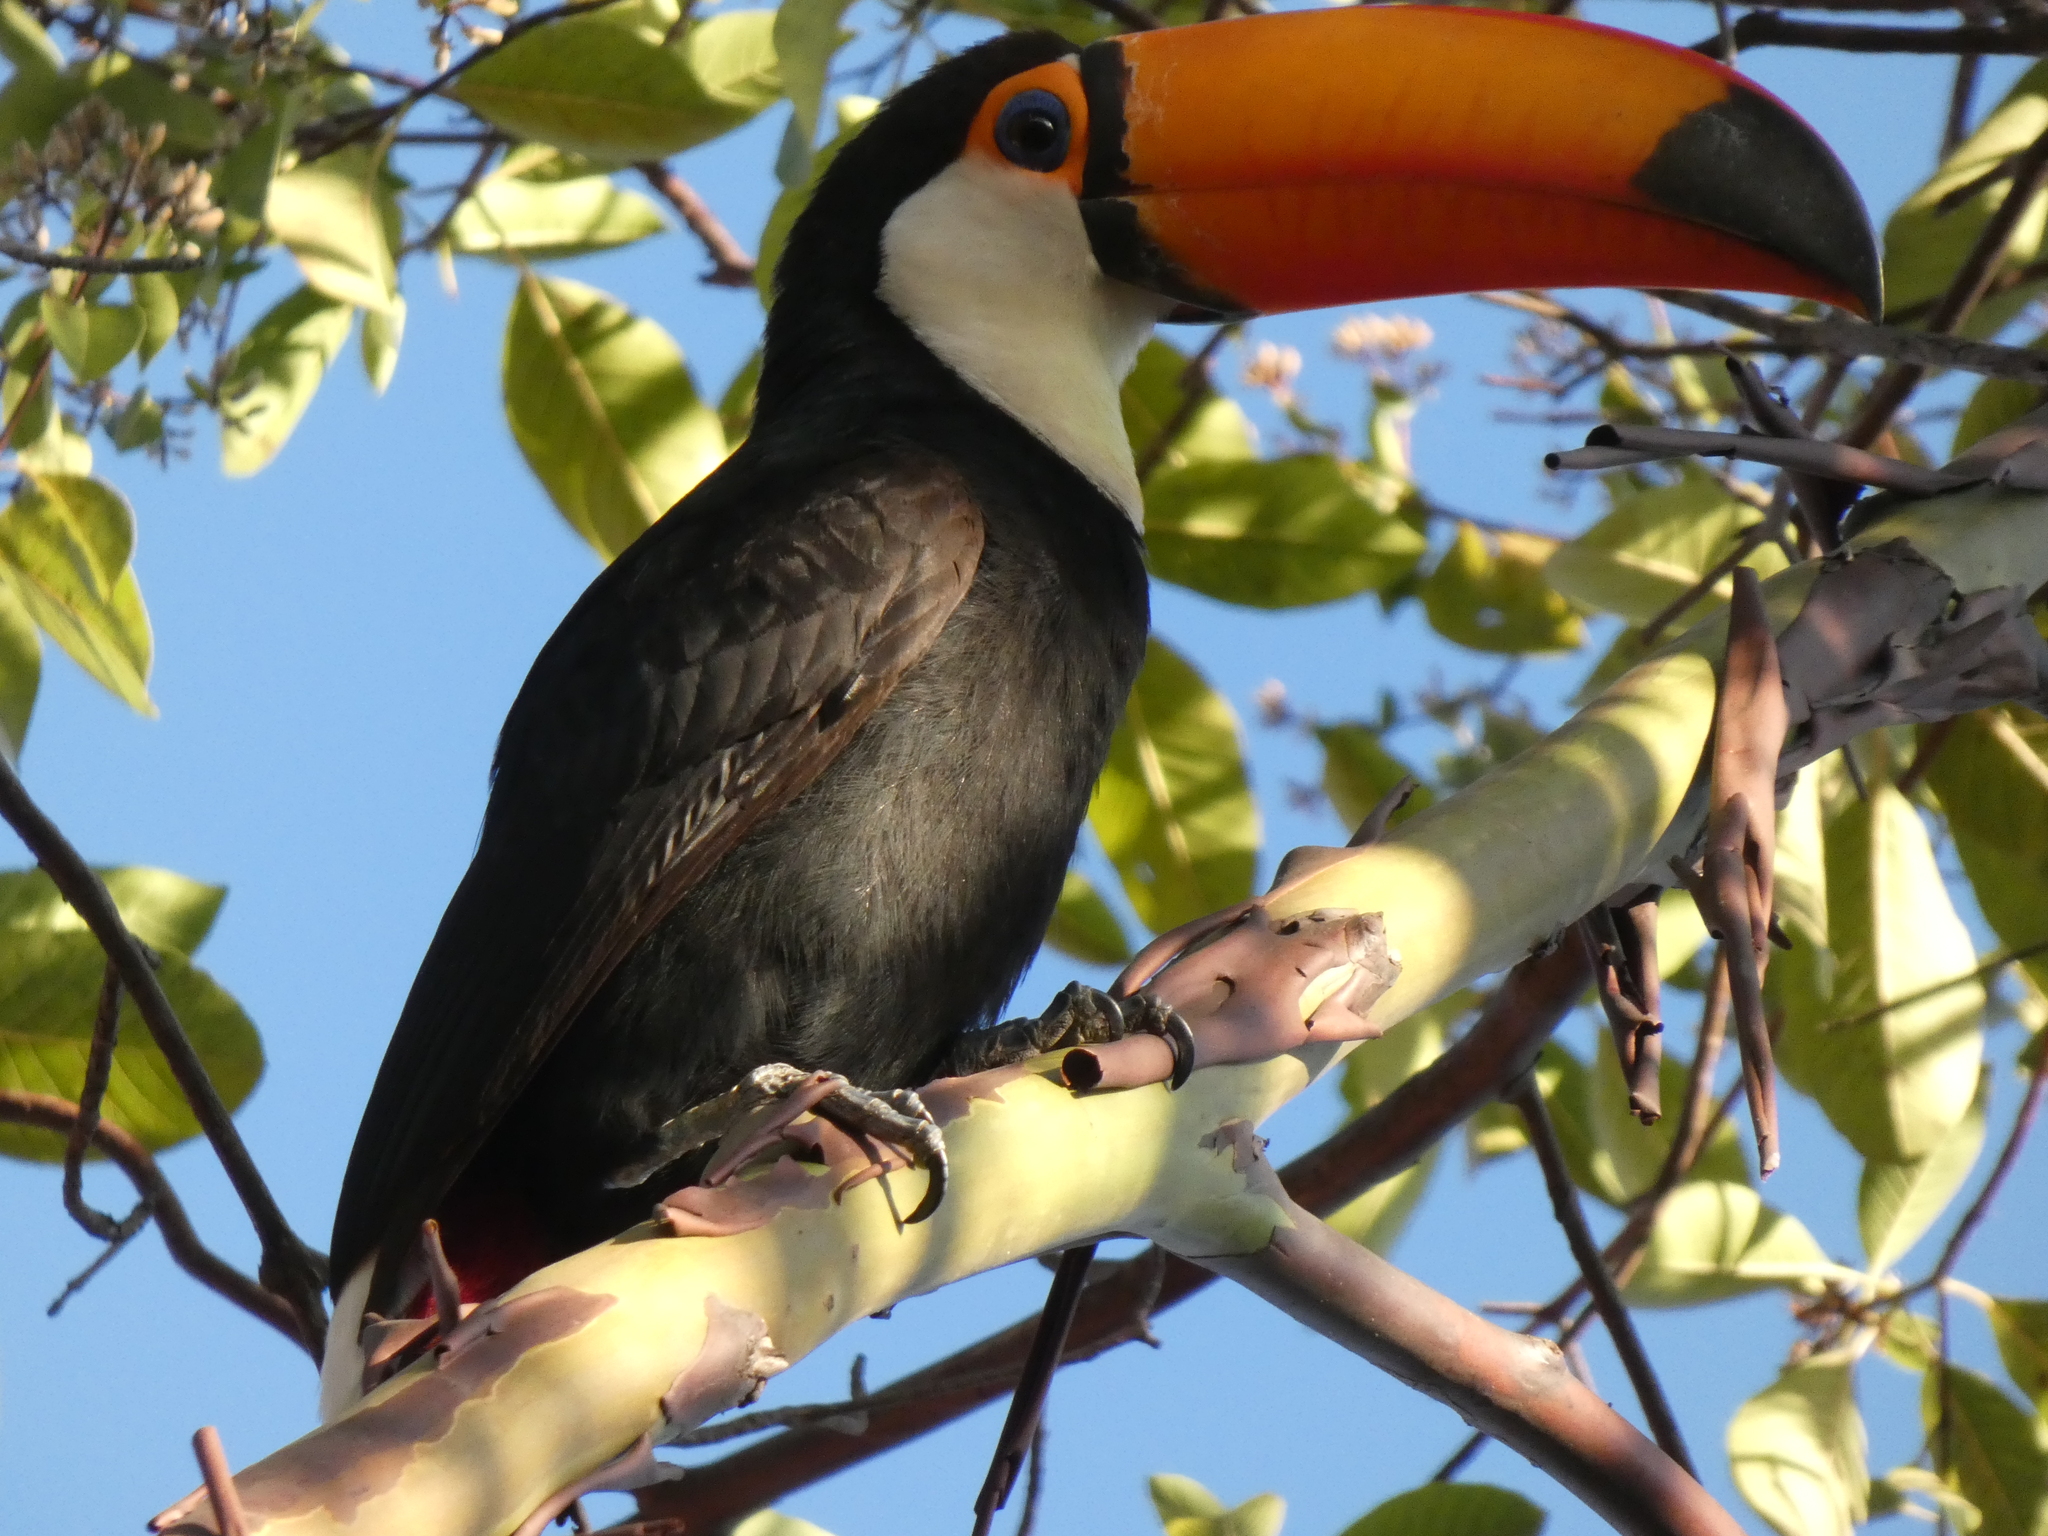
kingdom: Animalia
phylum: Chordata
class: Aves
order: Piciformes
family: Ramphastidae
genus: Ramphastos
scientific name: Ramphastos toco
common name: Toco toucan
